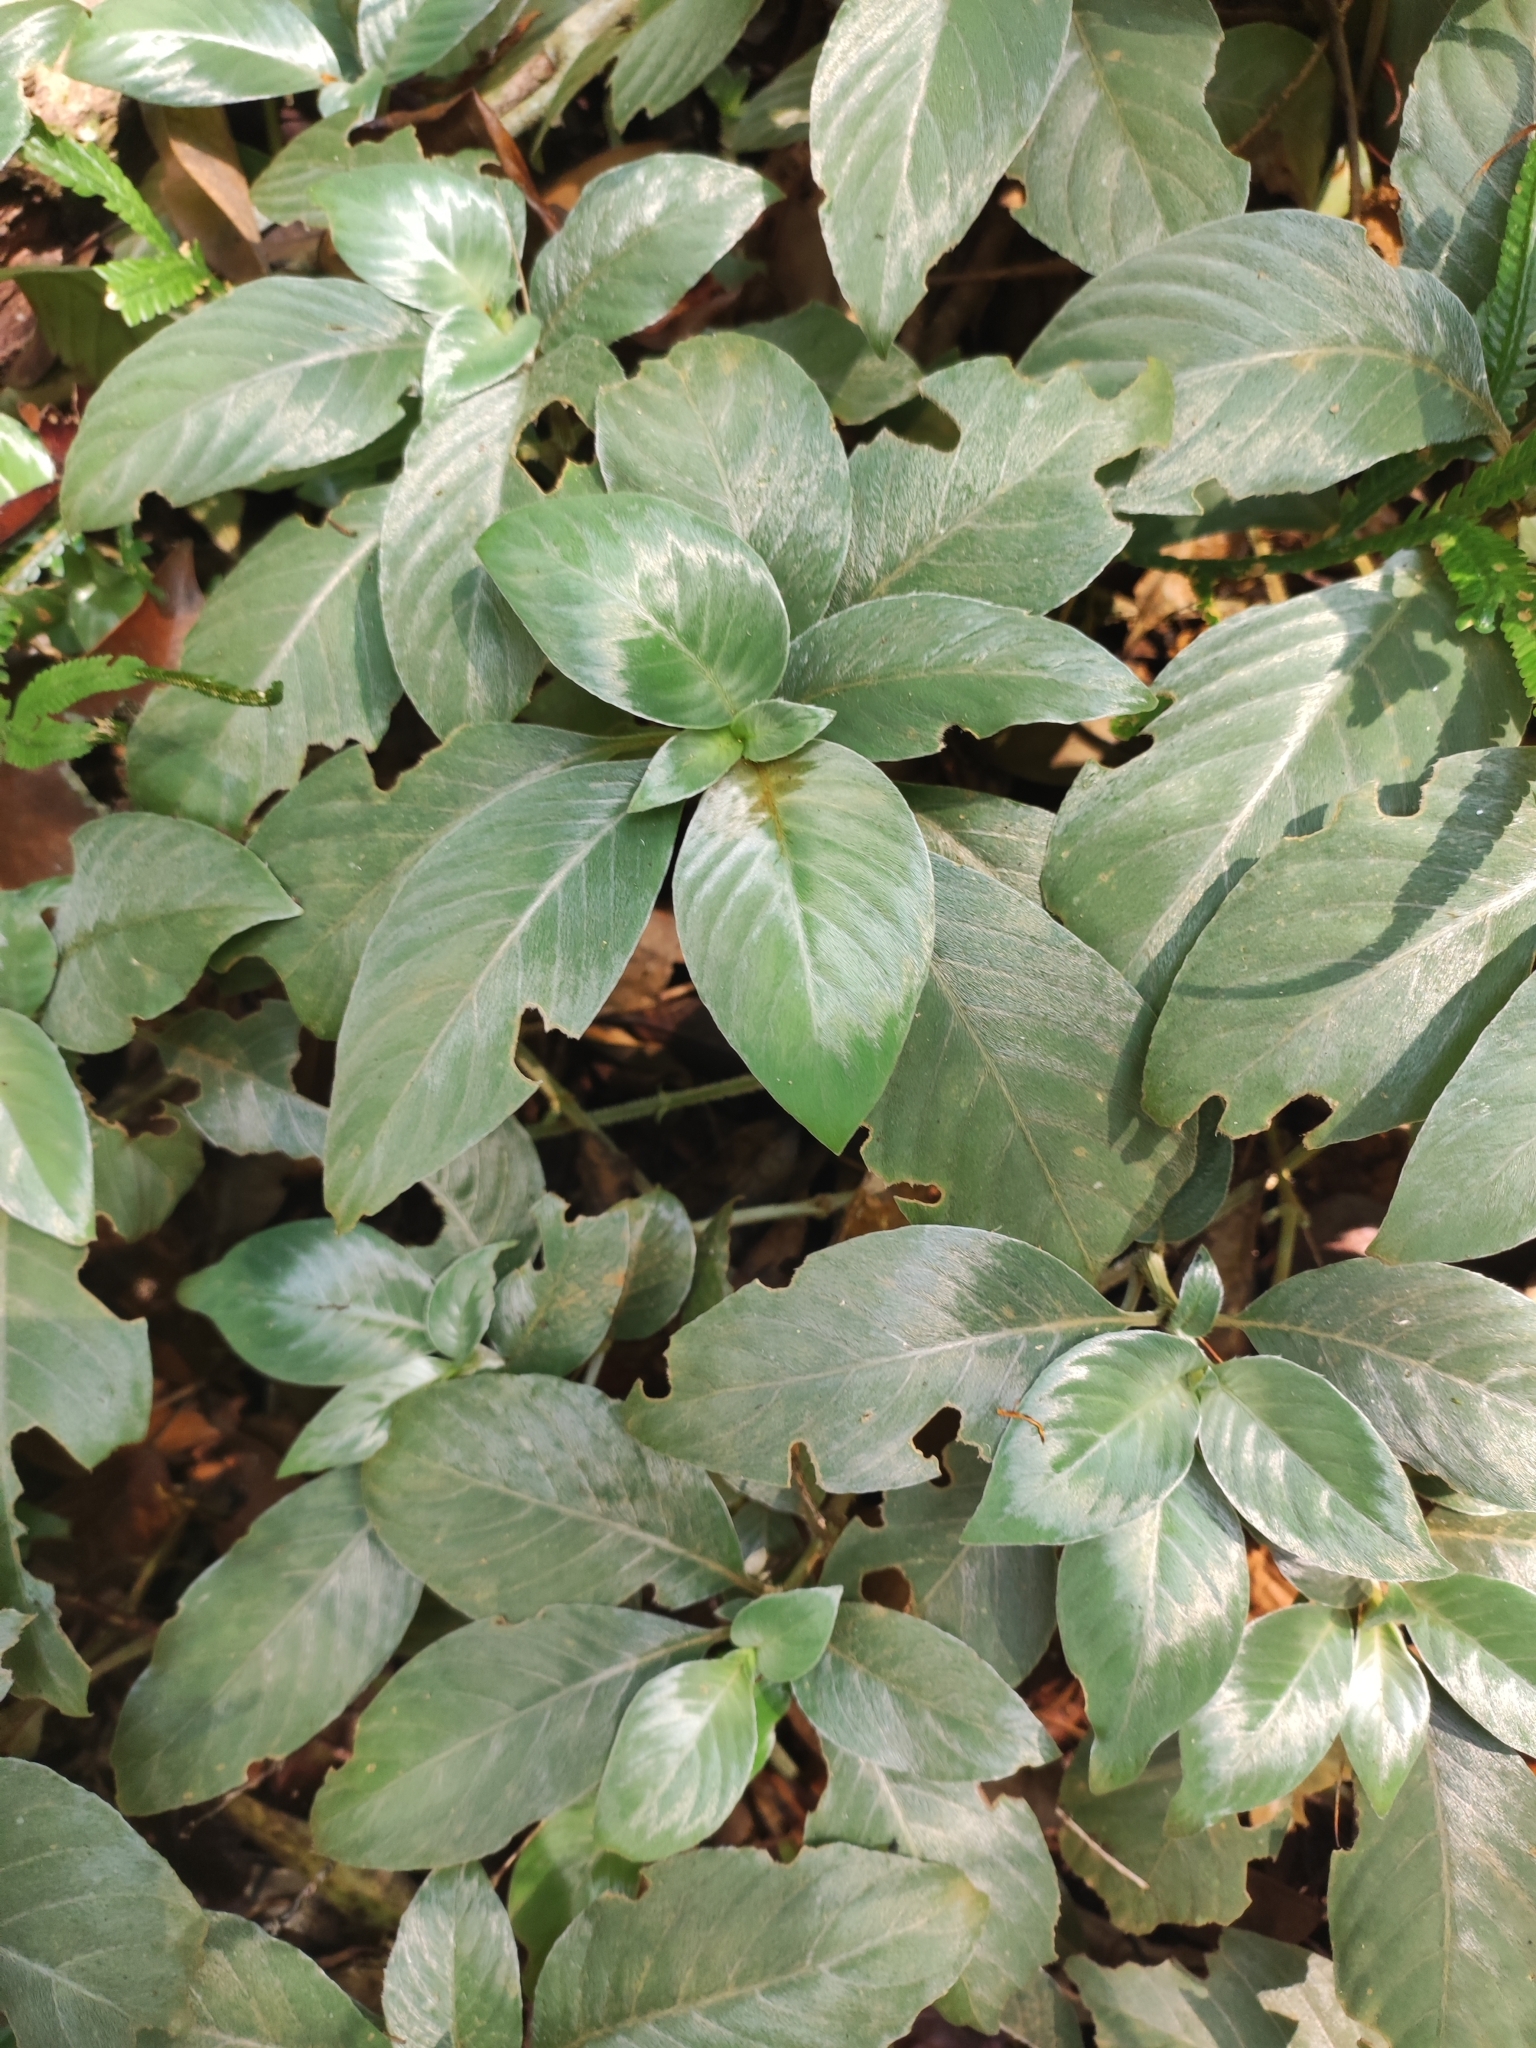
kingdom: Plantae
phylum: Tracheophyta
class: Magnoliopsida
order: Lamiales
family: Gesneriaceae
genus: Raphiocarpus
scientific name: Raphiocarpus sinovietnamicus
